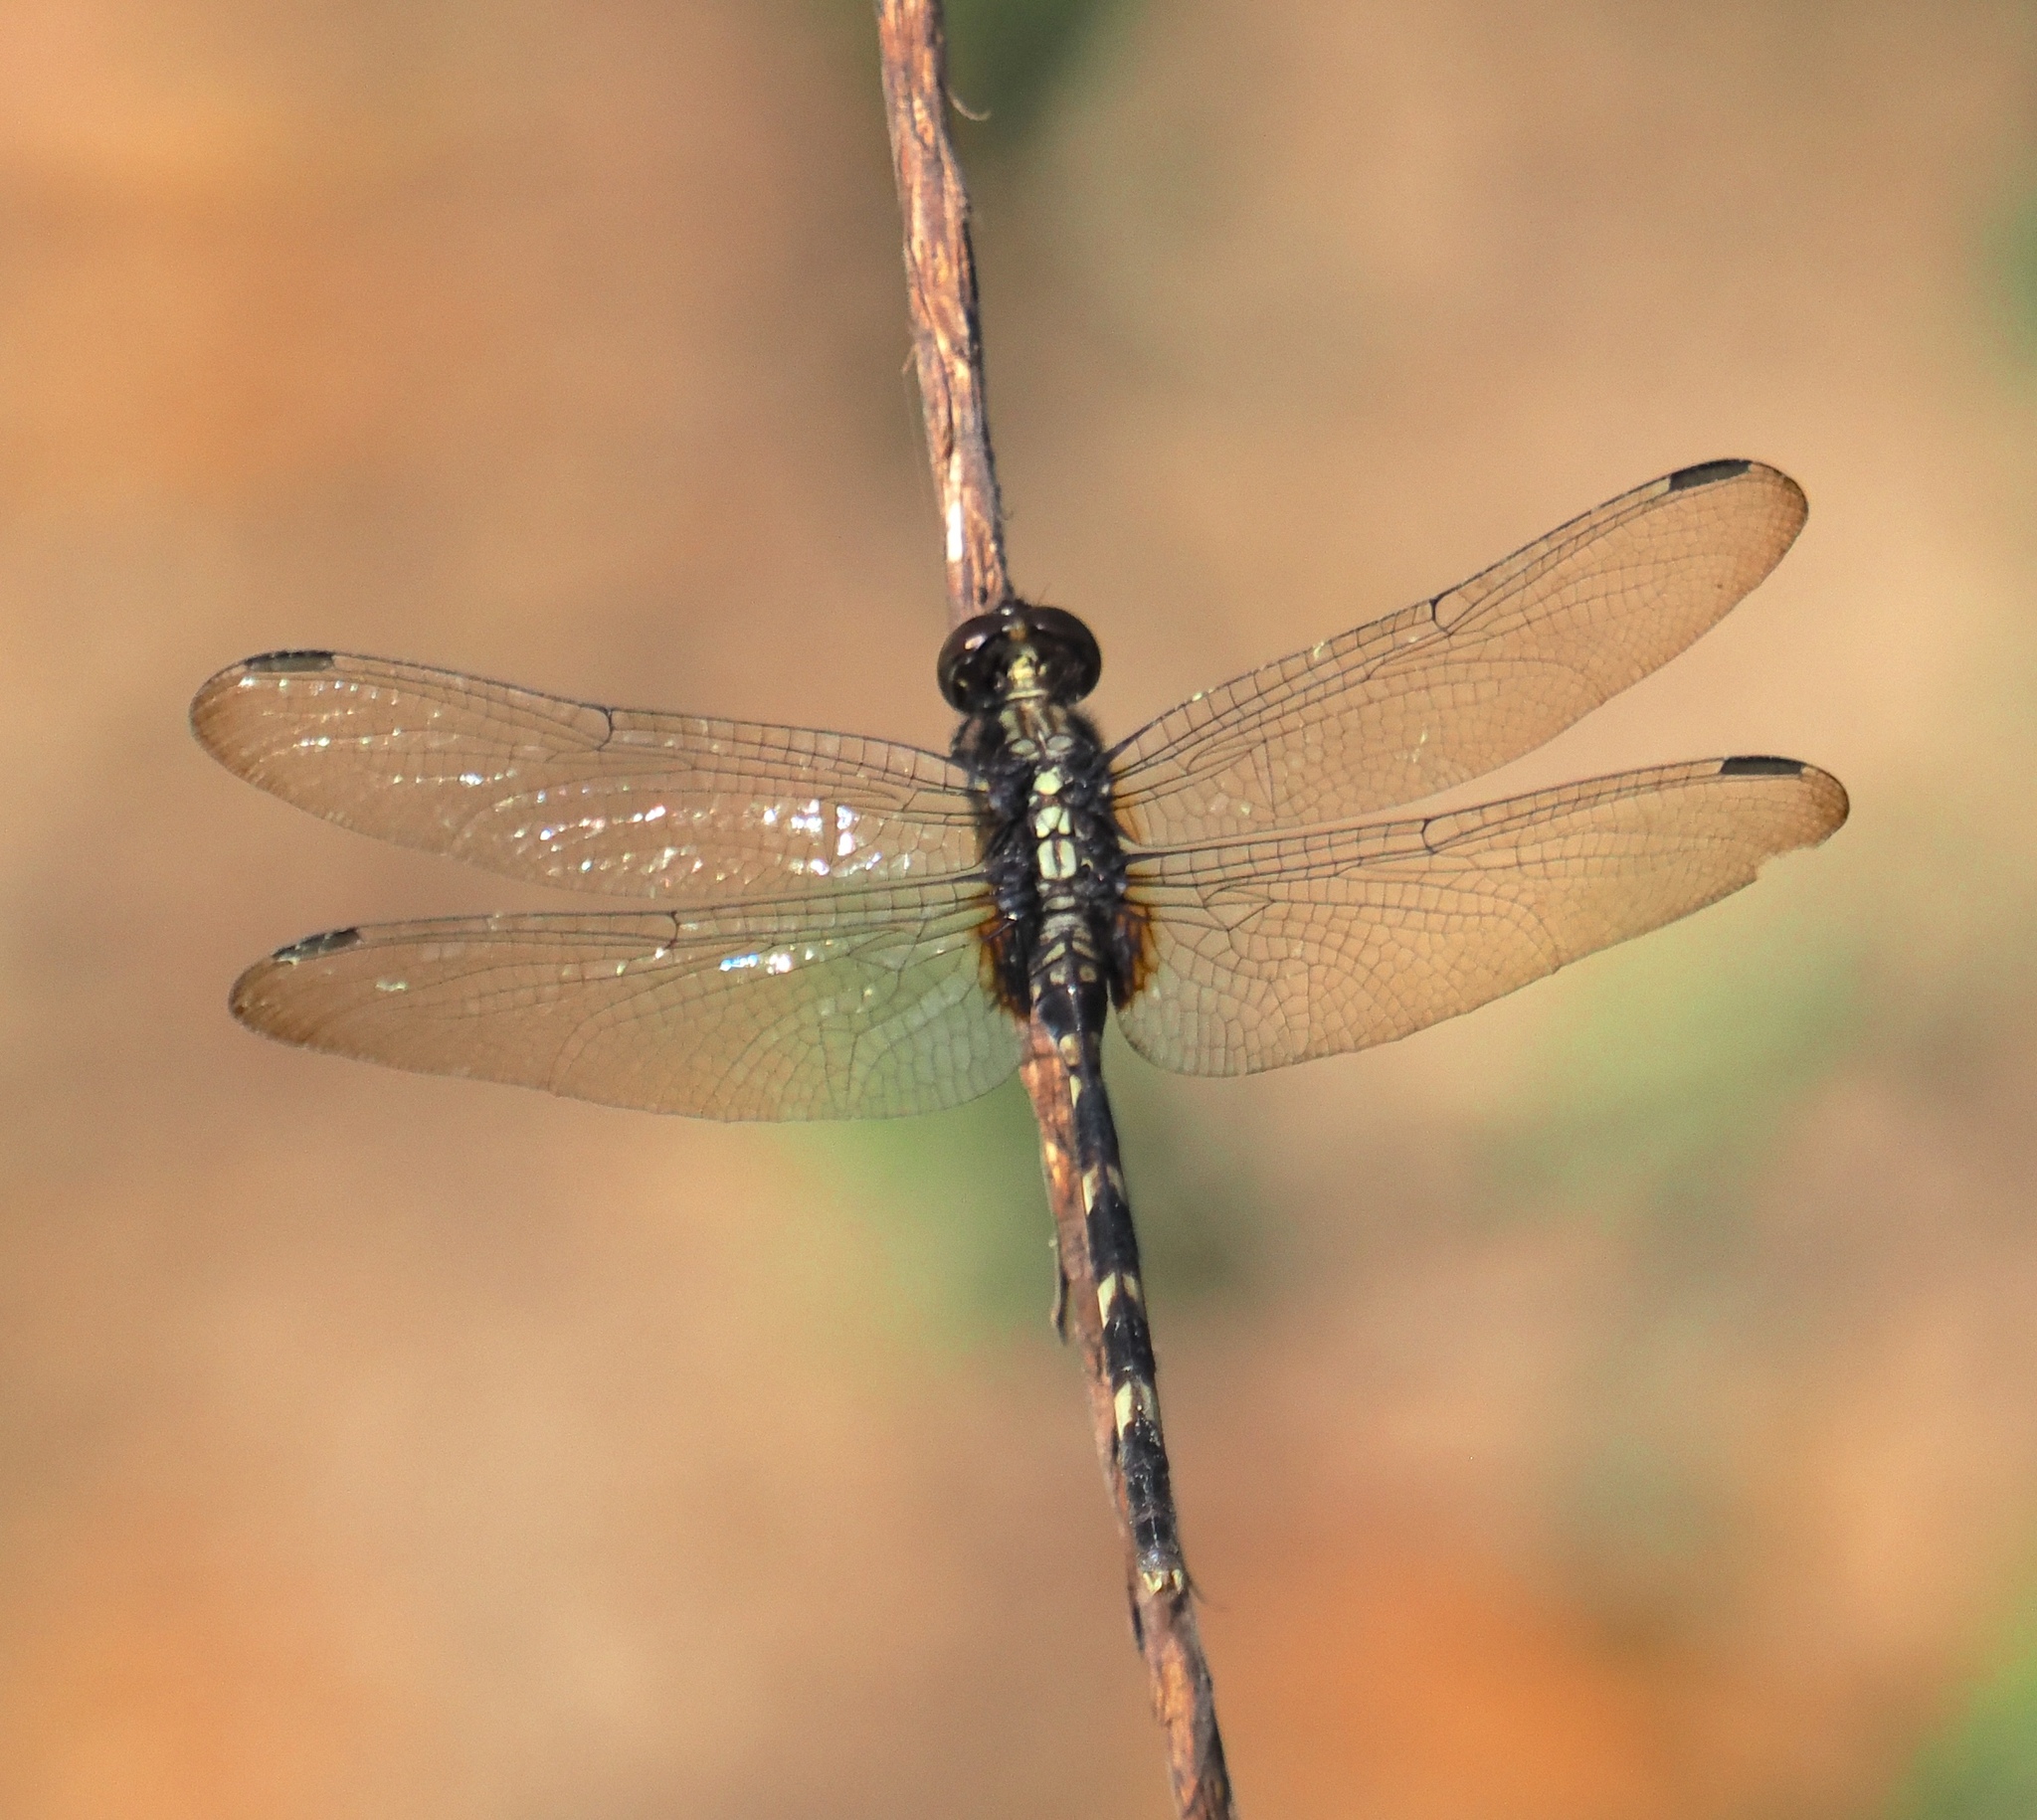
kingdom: Animalia
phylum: Arthropoda
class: Insecta
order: Odonata
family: Libellulidae
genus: Erythemis
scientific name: Erythemis plebeja
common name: Pin-tailed pondhawk
